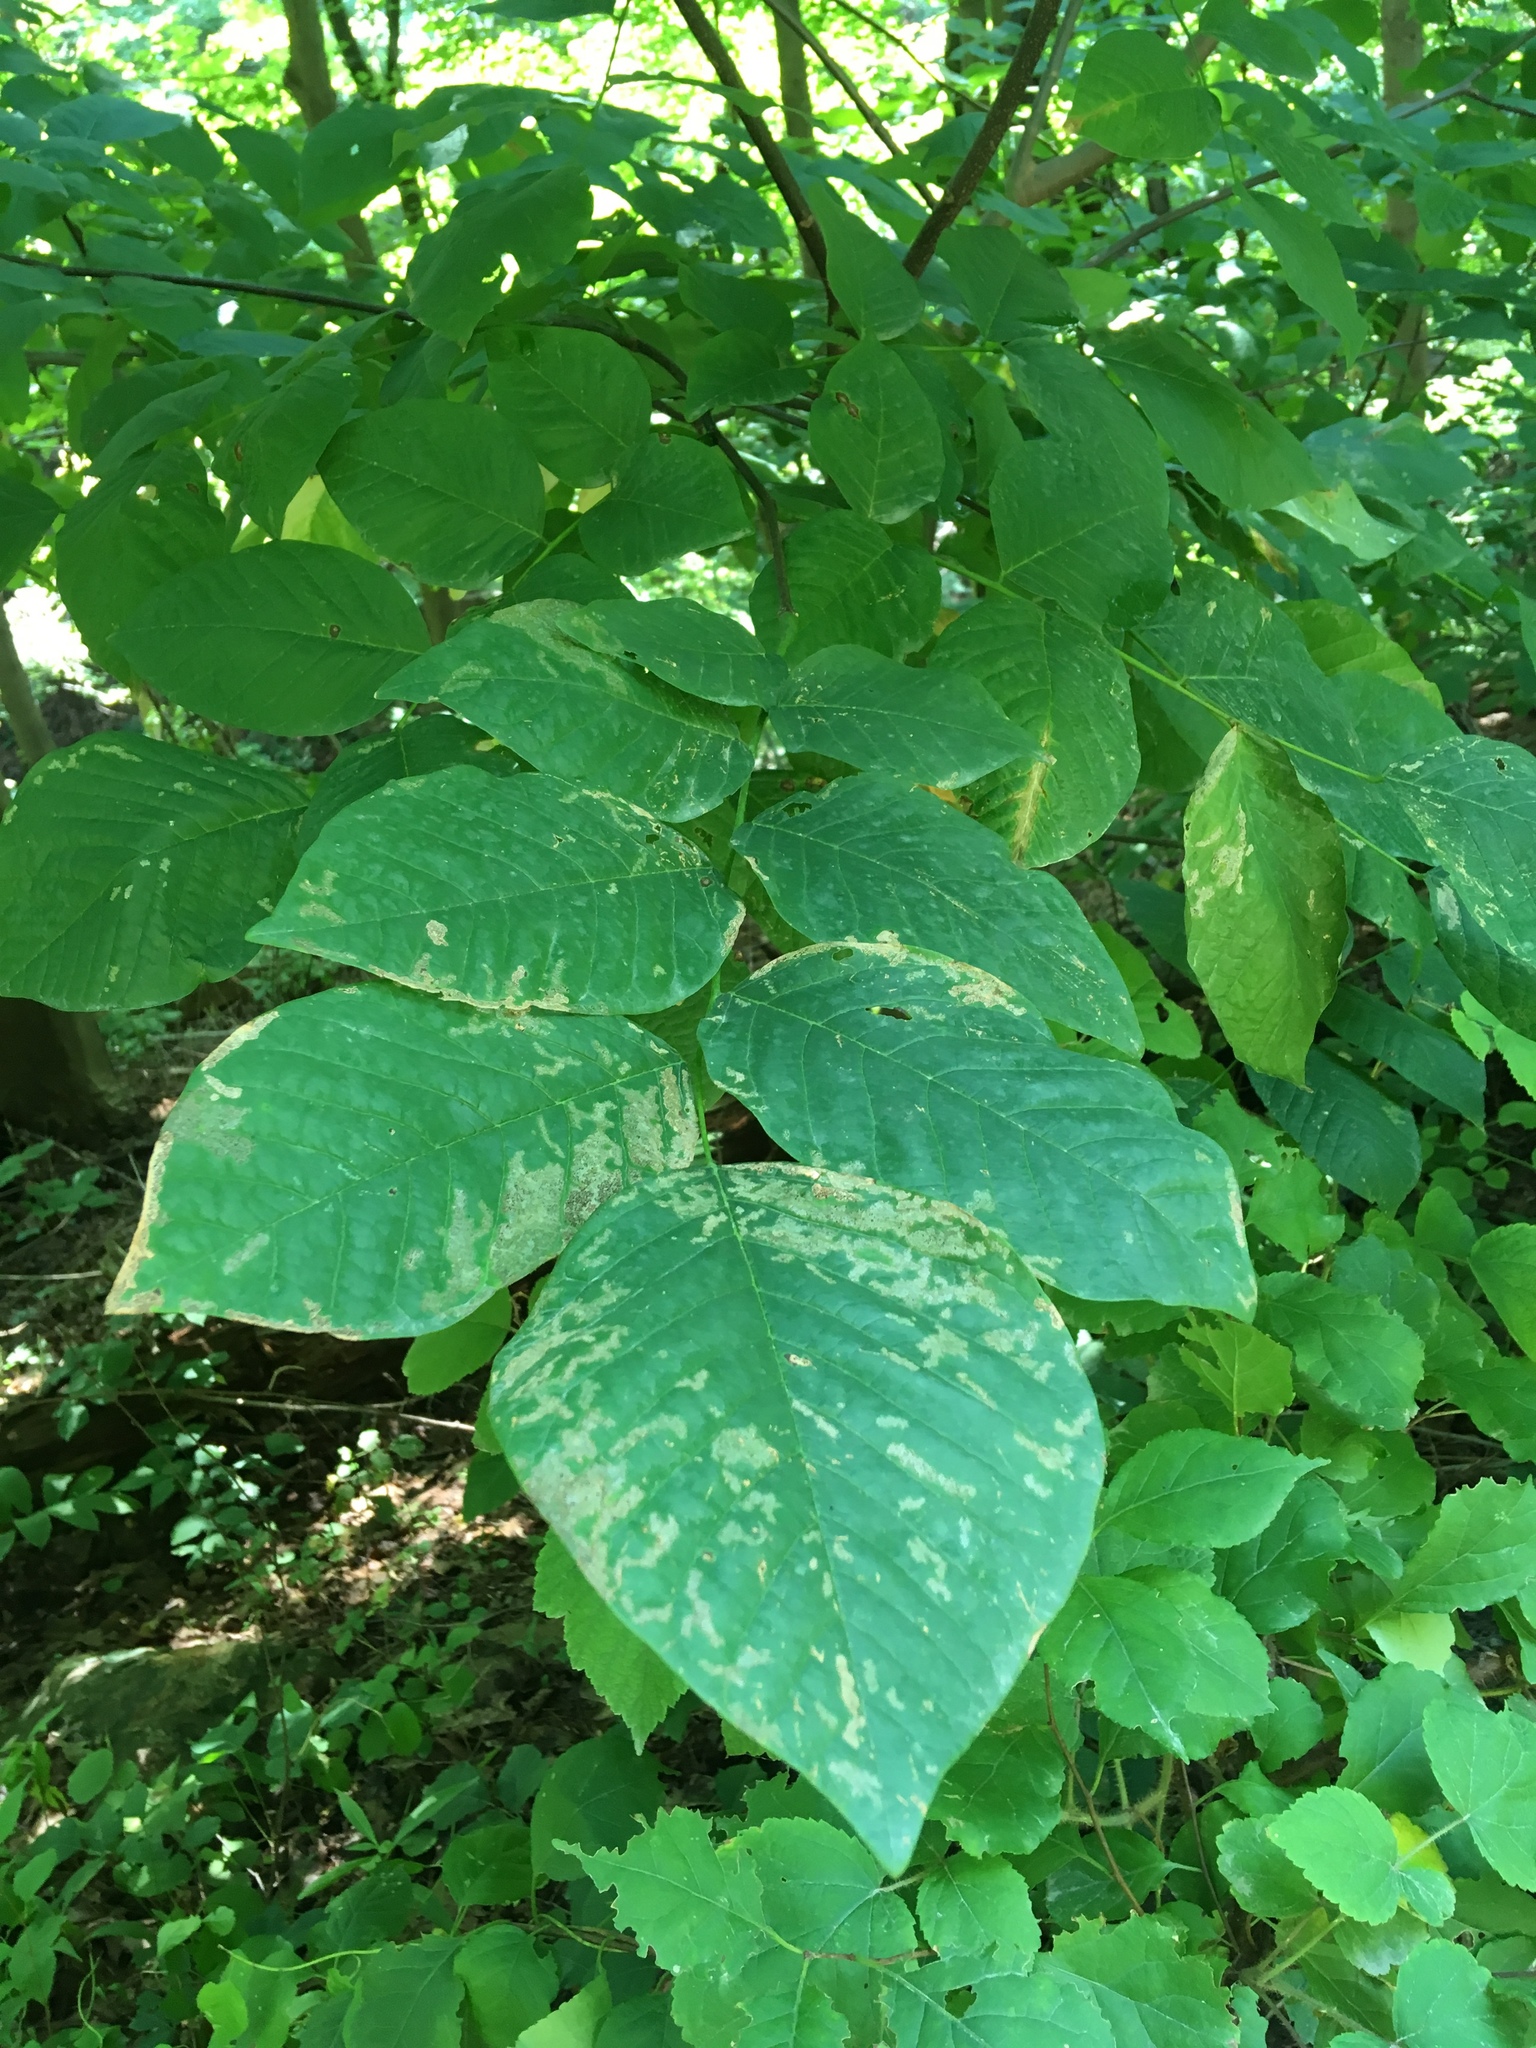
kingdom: Plantae
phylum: Tracheophyta
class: Magnoliopsida
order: Fabales
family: Fabaceae
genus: Cladrastis
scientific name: Cladrastis kentukea
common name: Kentucky yellow-wood
